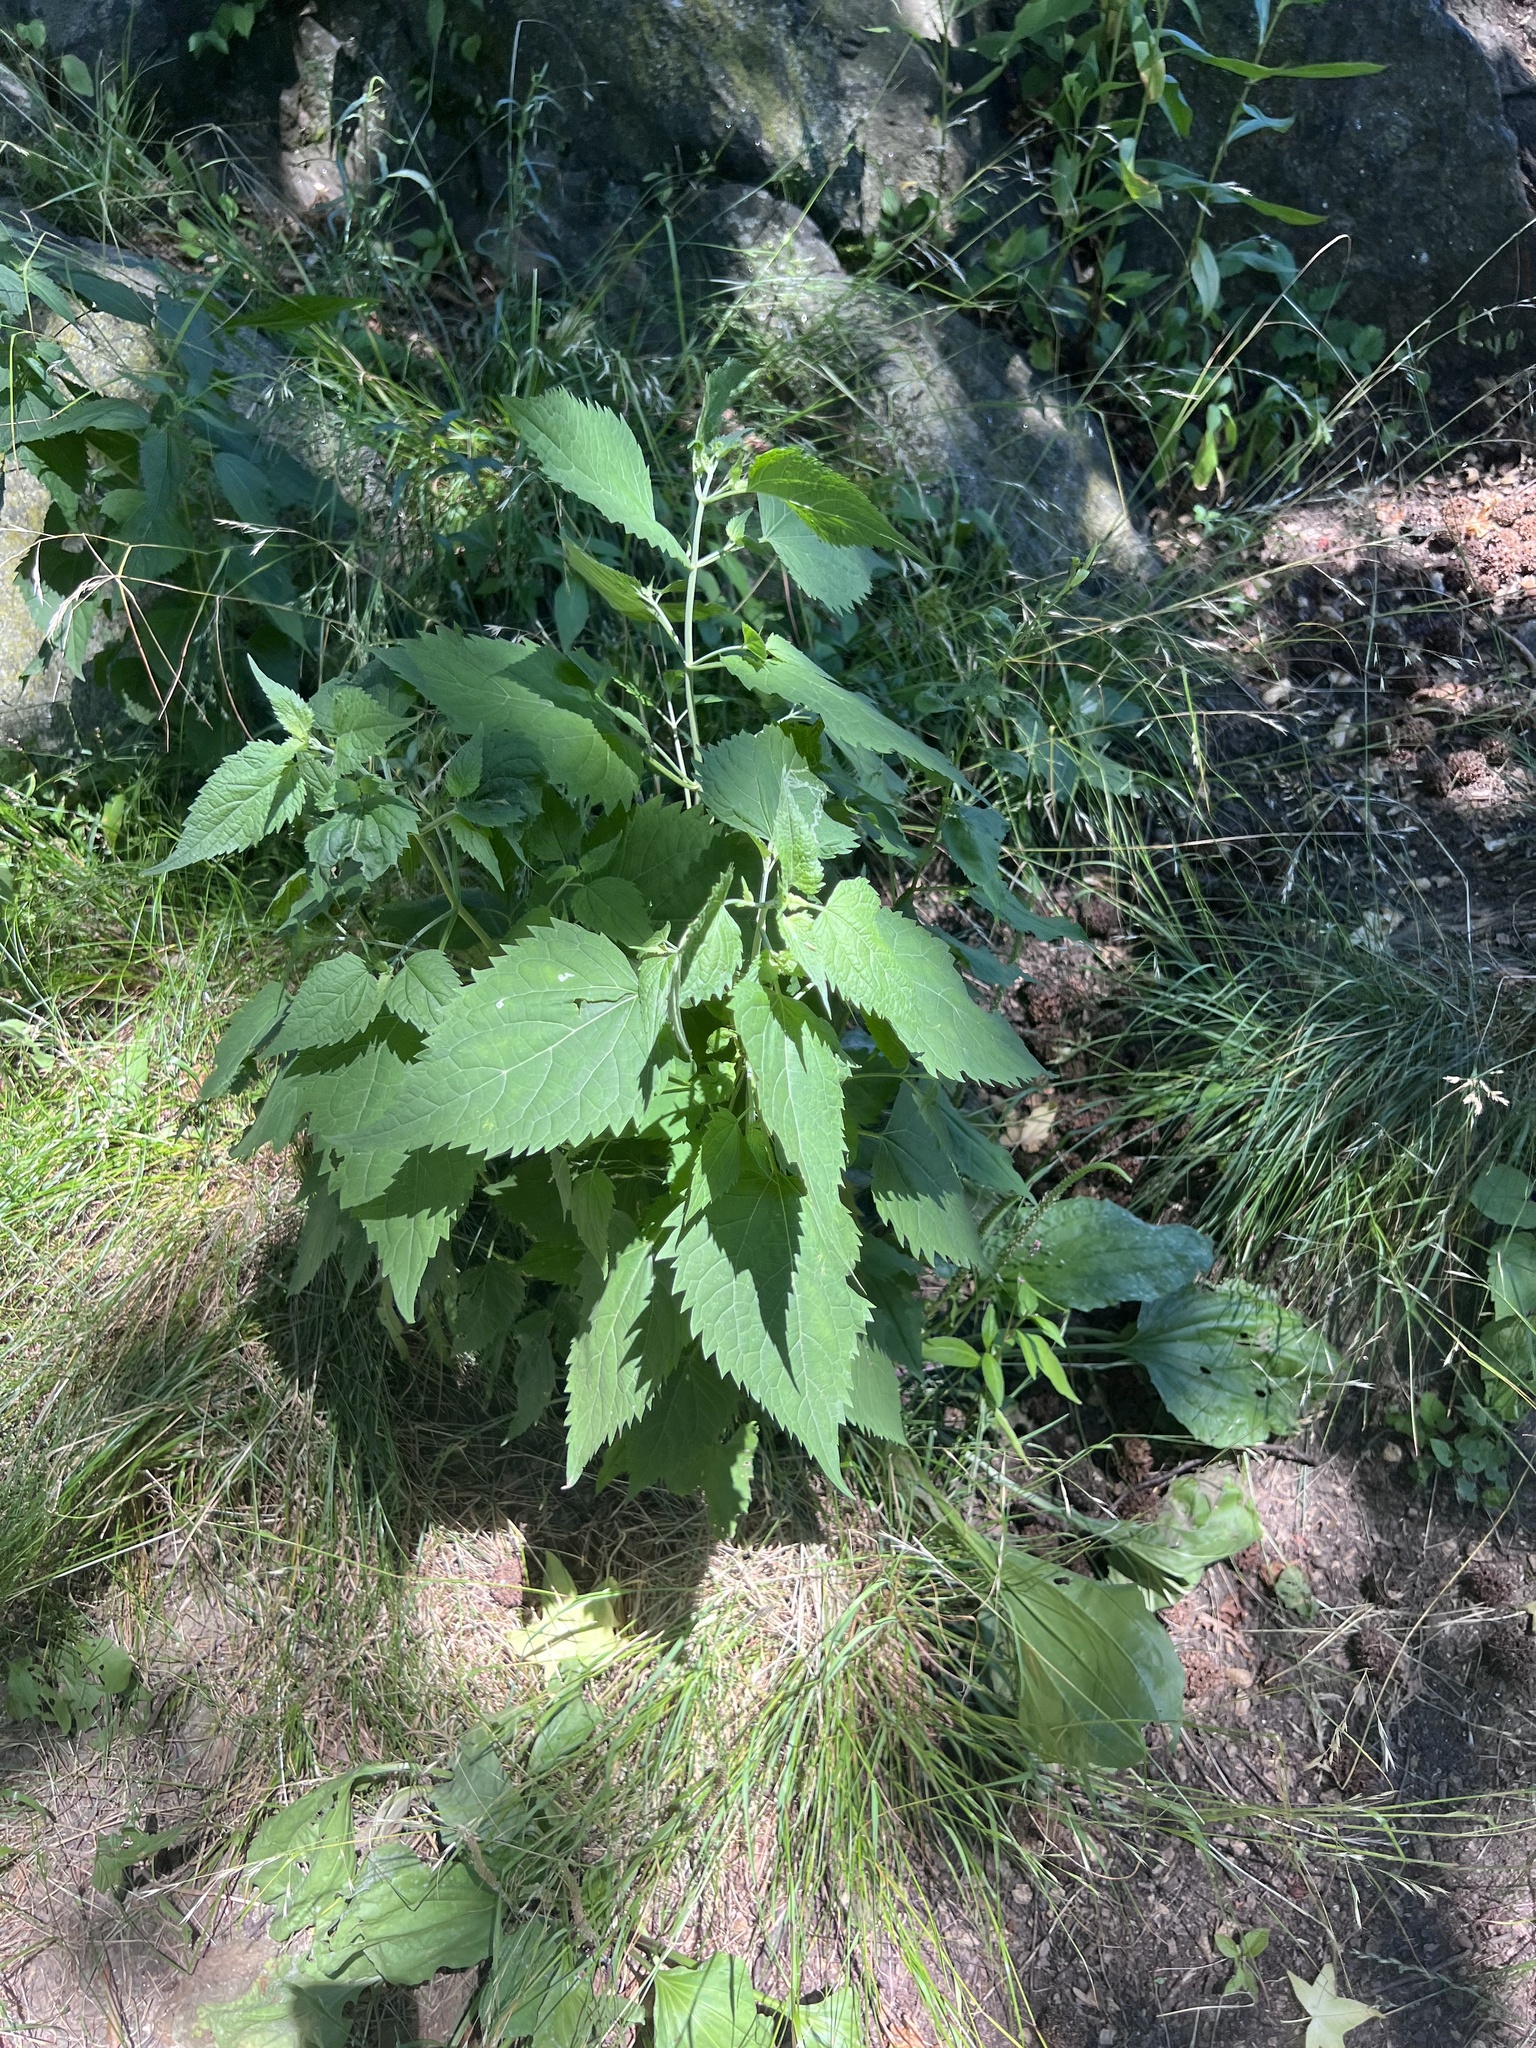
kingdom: Plantae
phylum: Tracheophyta
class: Magnoliopsida
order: Asterales
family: Asteraceae
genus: Ageratina
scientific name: Ageratina altissima
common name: White snakeroot
